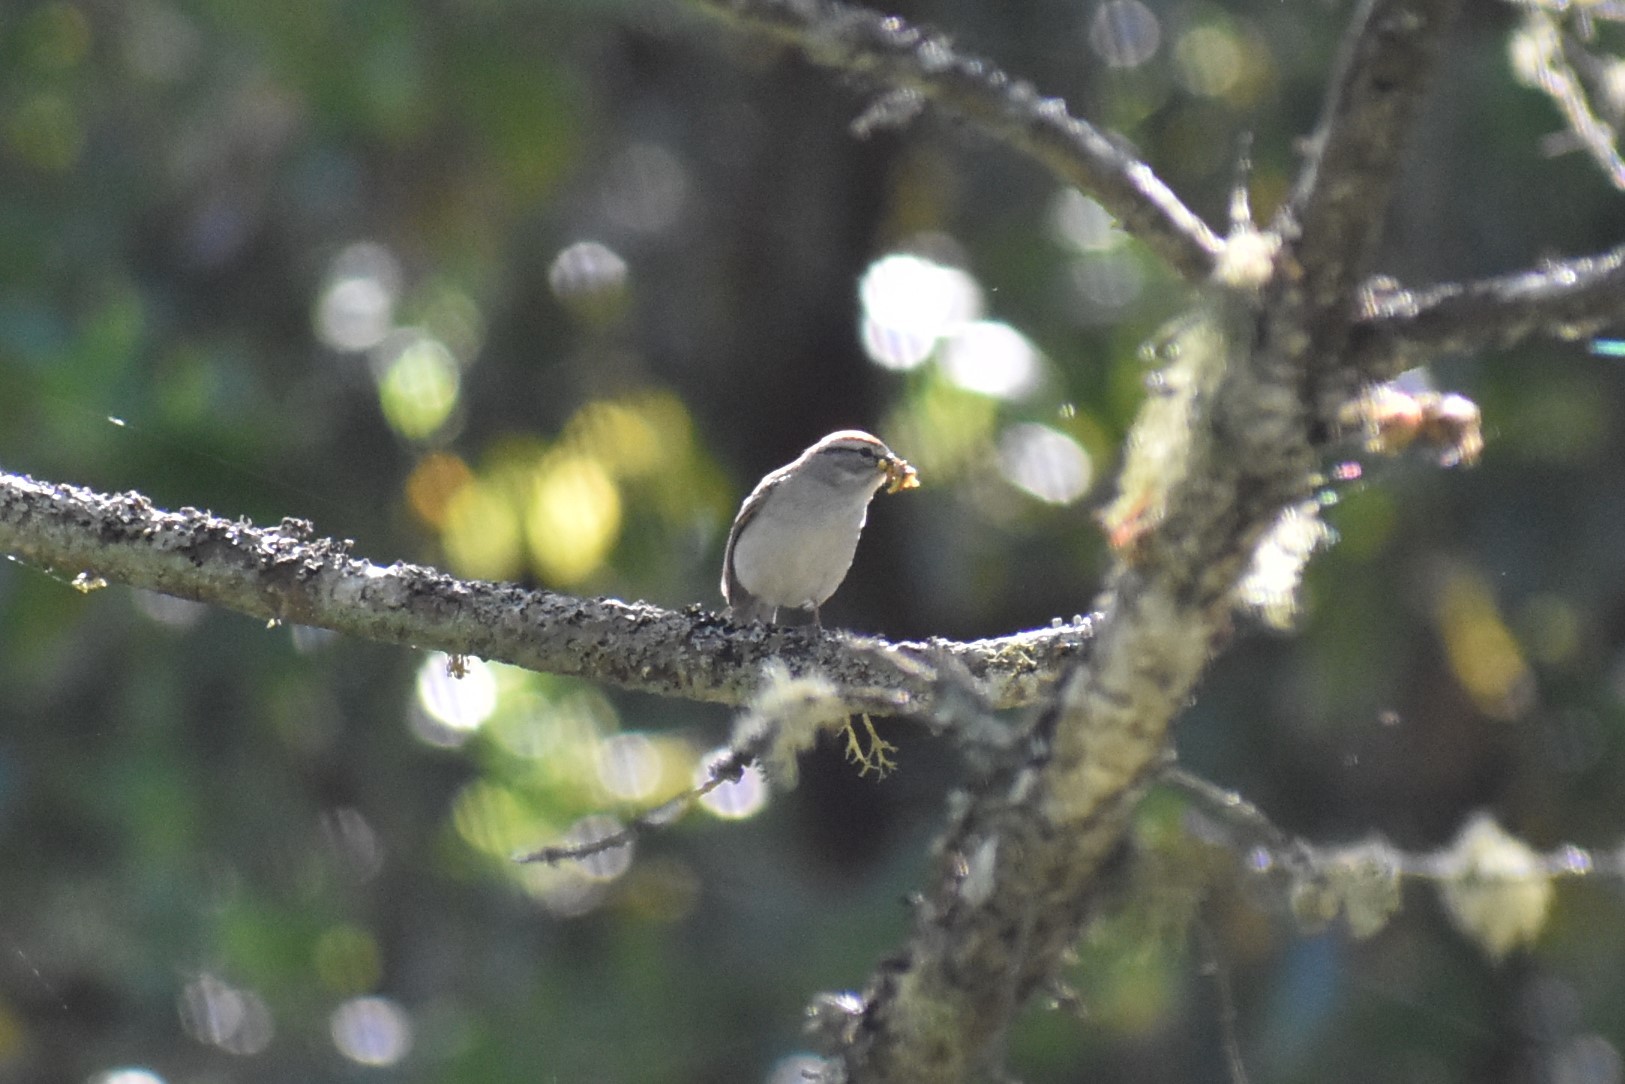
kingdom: Animalia
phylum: Chordata
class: Aves
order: Passeriformes
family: Passerellidae
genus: Spizella
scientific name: Spizella passerina
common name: Chipping sparrow
